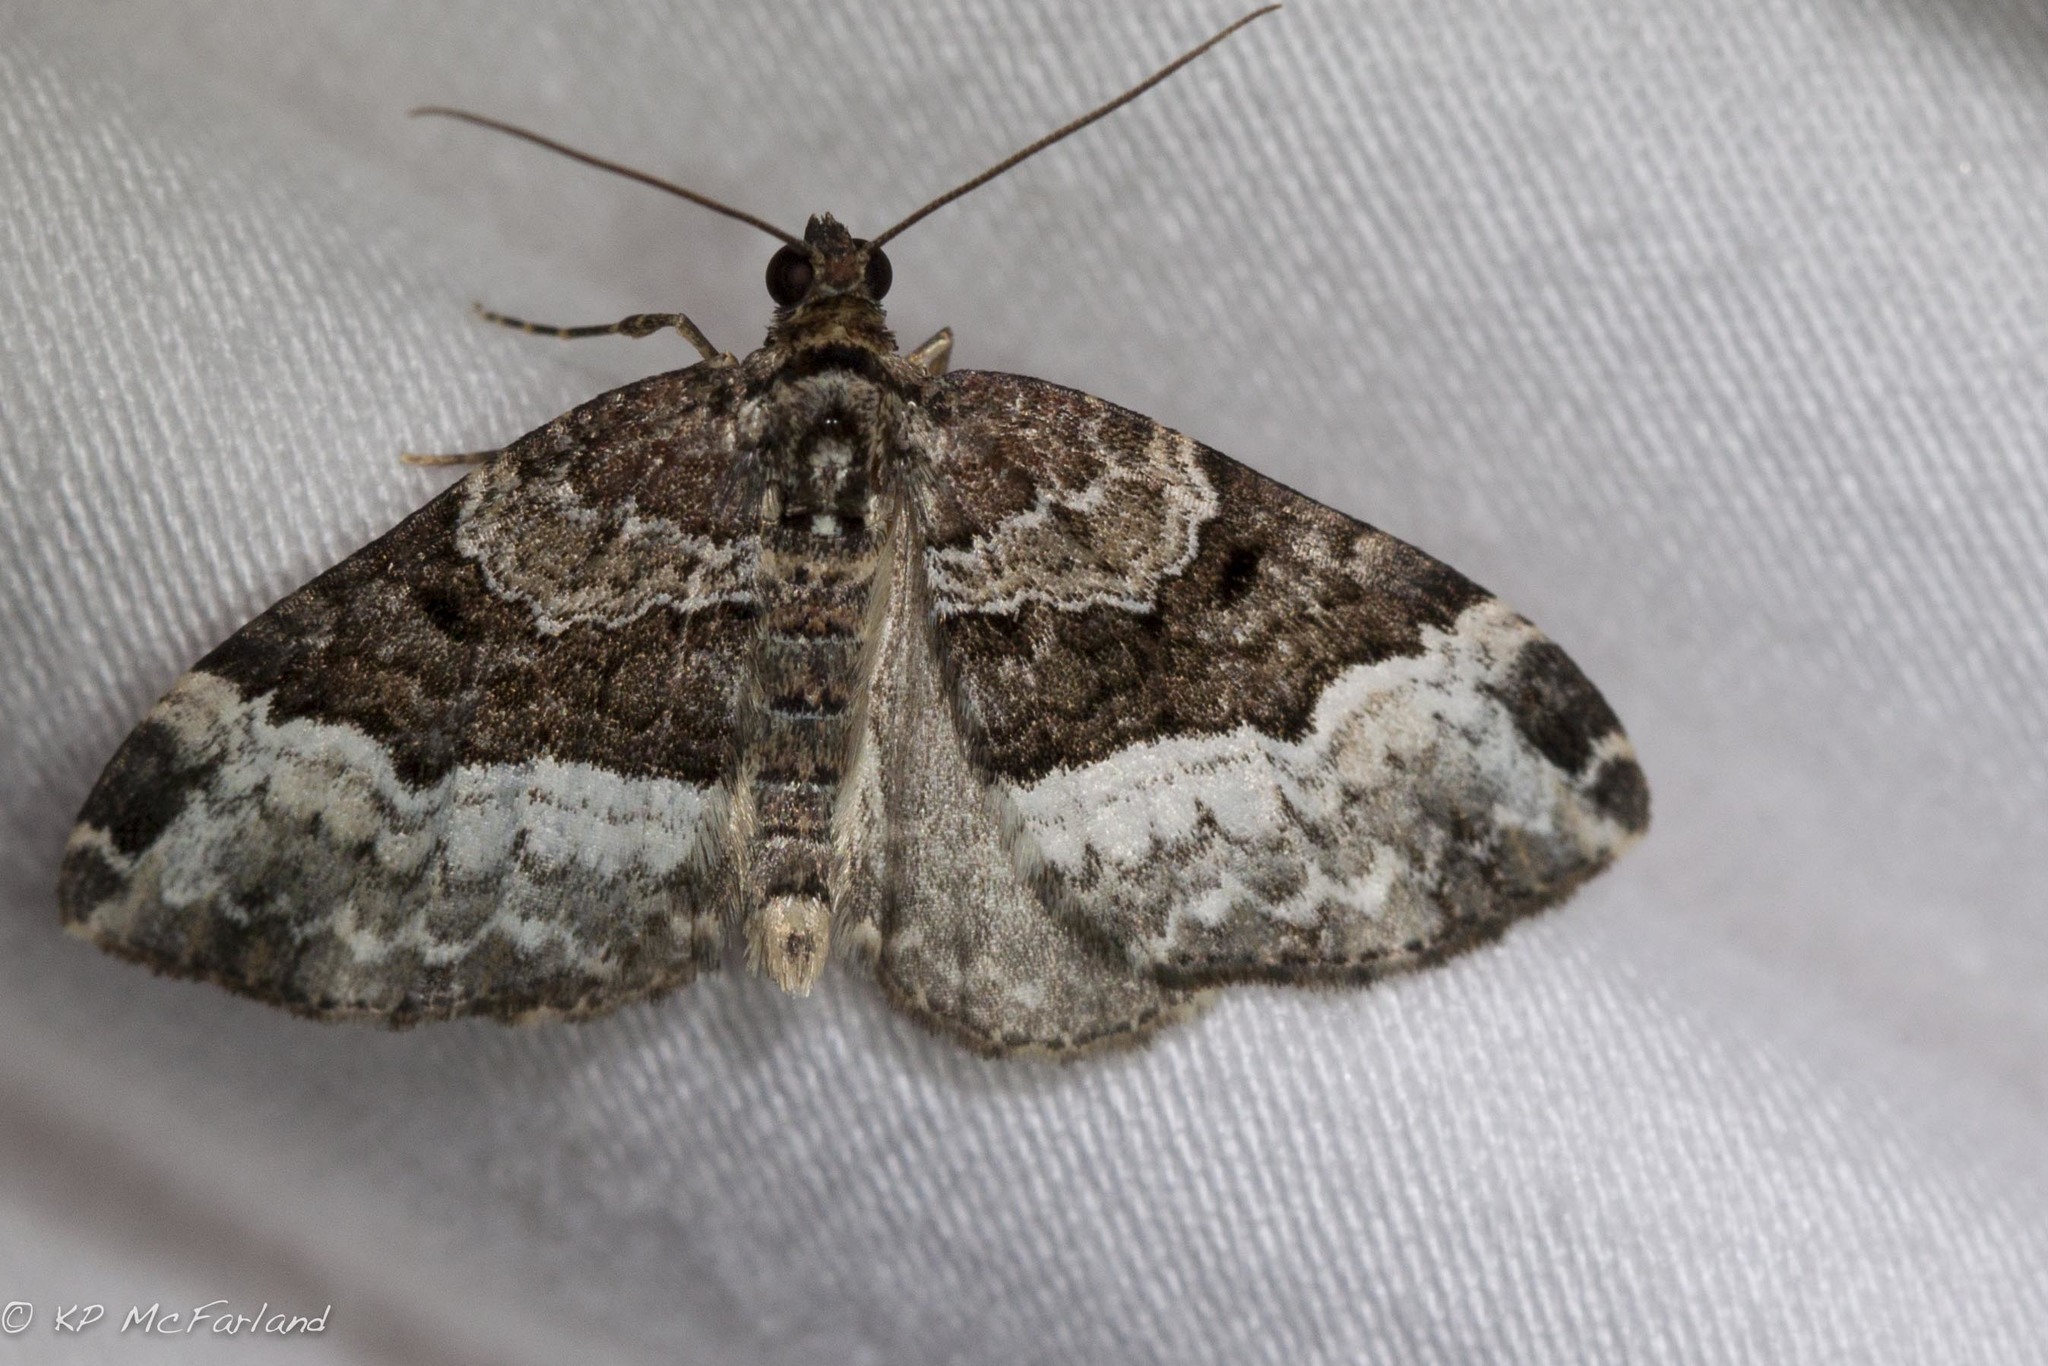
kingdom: Animalia
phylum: Arthropoda
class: Insecta
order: Lepidoptera
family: Geometridae
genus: Euphyia
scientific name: Euphyia intermediata
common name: Sharp-angled carpet
